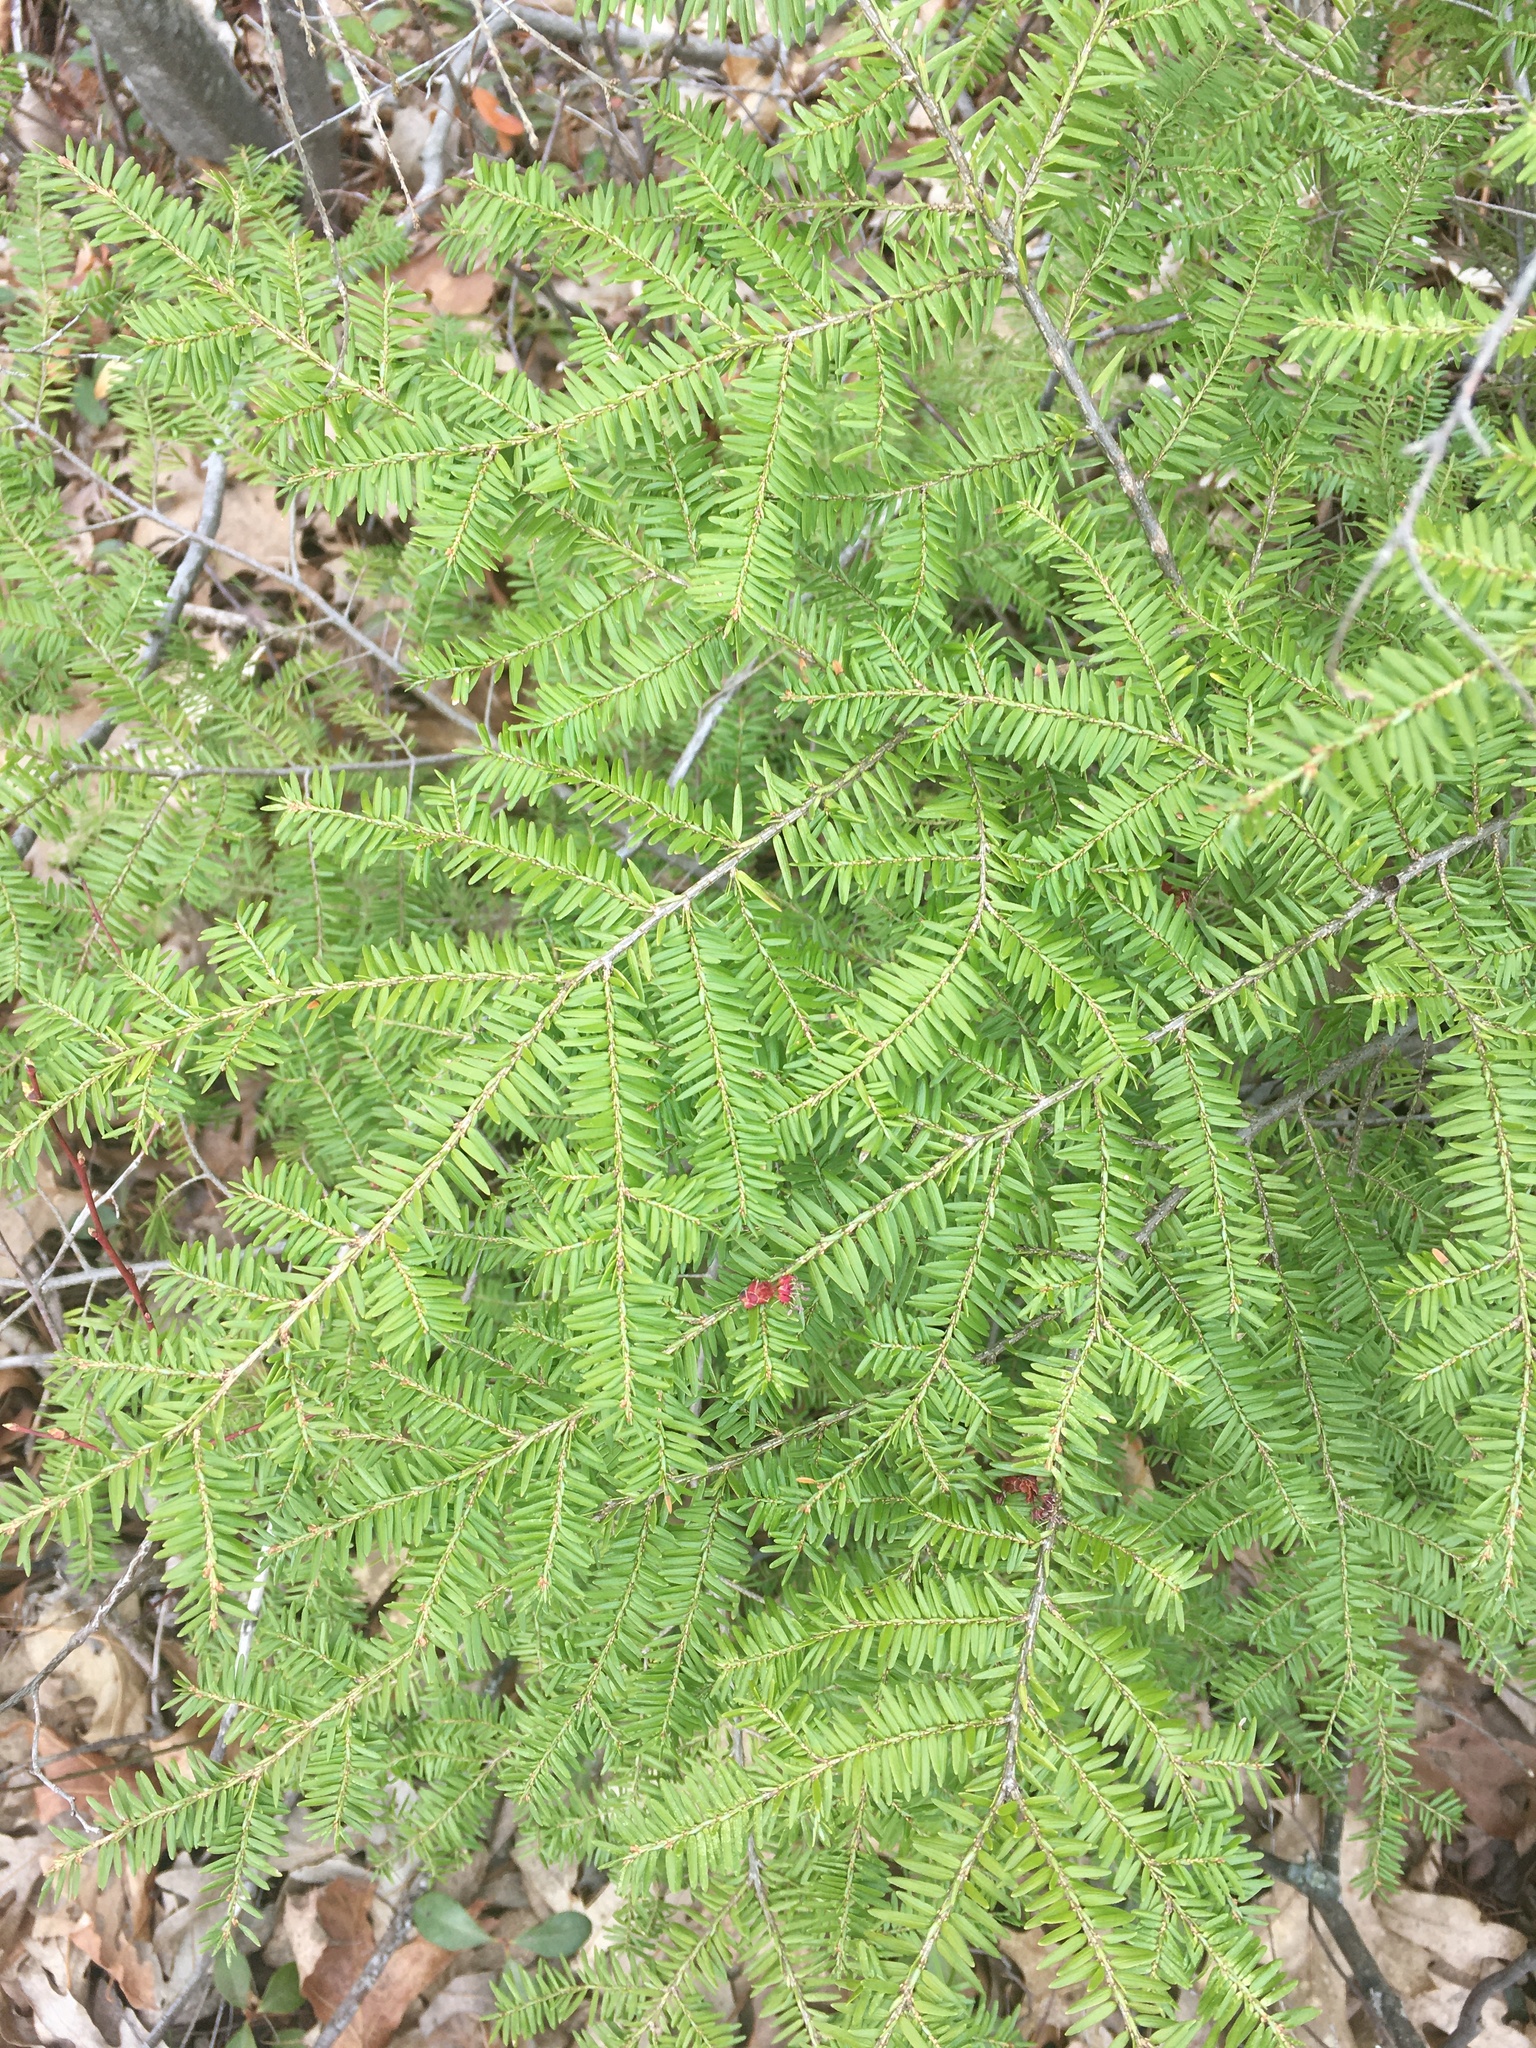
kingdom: Plantae
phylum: Tracheophyta
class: Pinopsida
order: Pinales
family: Pinaceae
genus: Tsuga
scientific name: Tsuga canadensis
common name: Eastern hemlock
